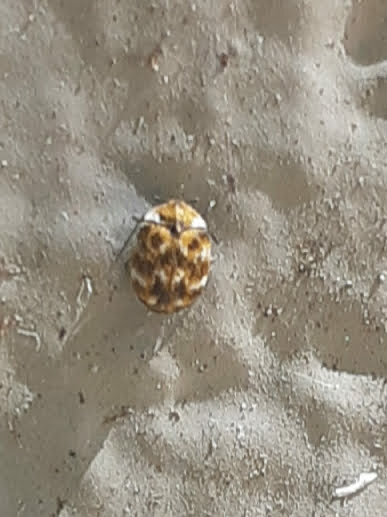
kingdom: Animalia
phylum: Arthropoda
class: Insecta
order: Coleoptera
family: Dermestidae
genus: Anthrenus
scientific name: Anthrenus verbasci
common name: Varied carpet beetle
